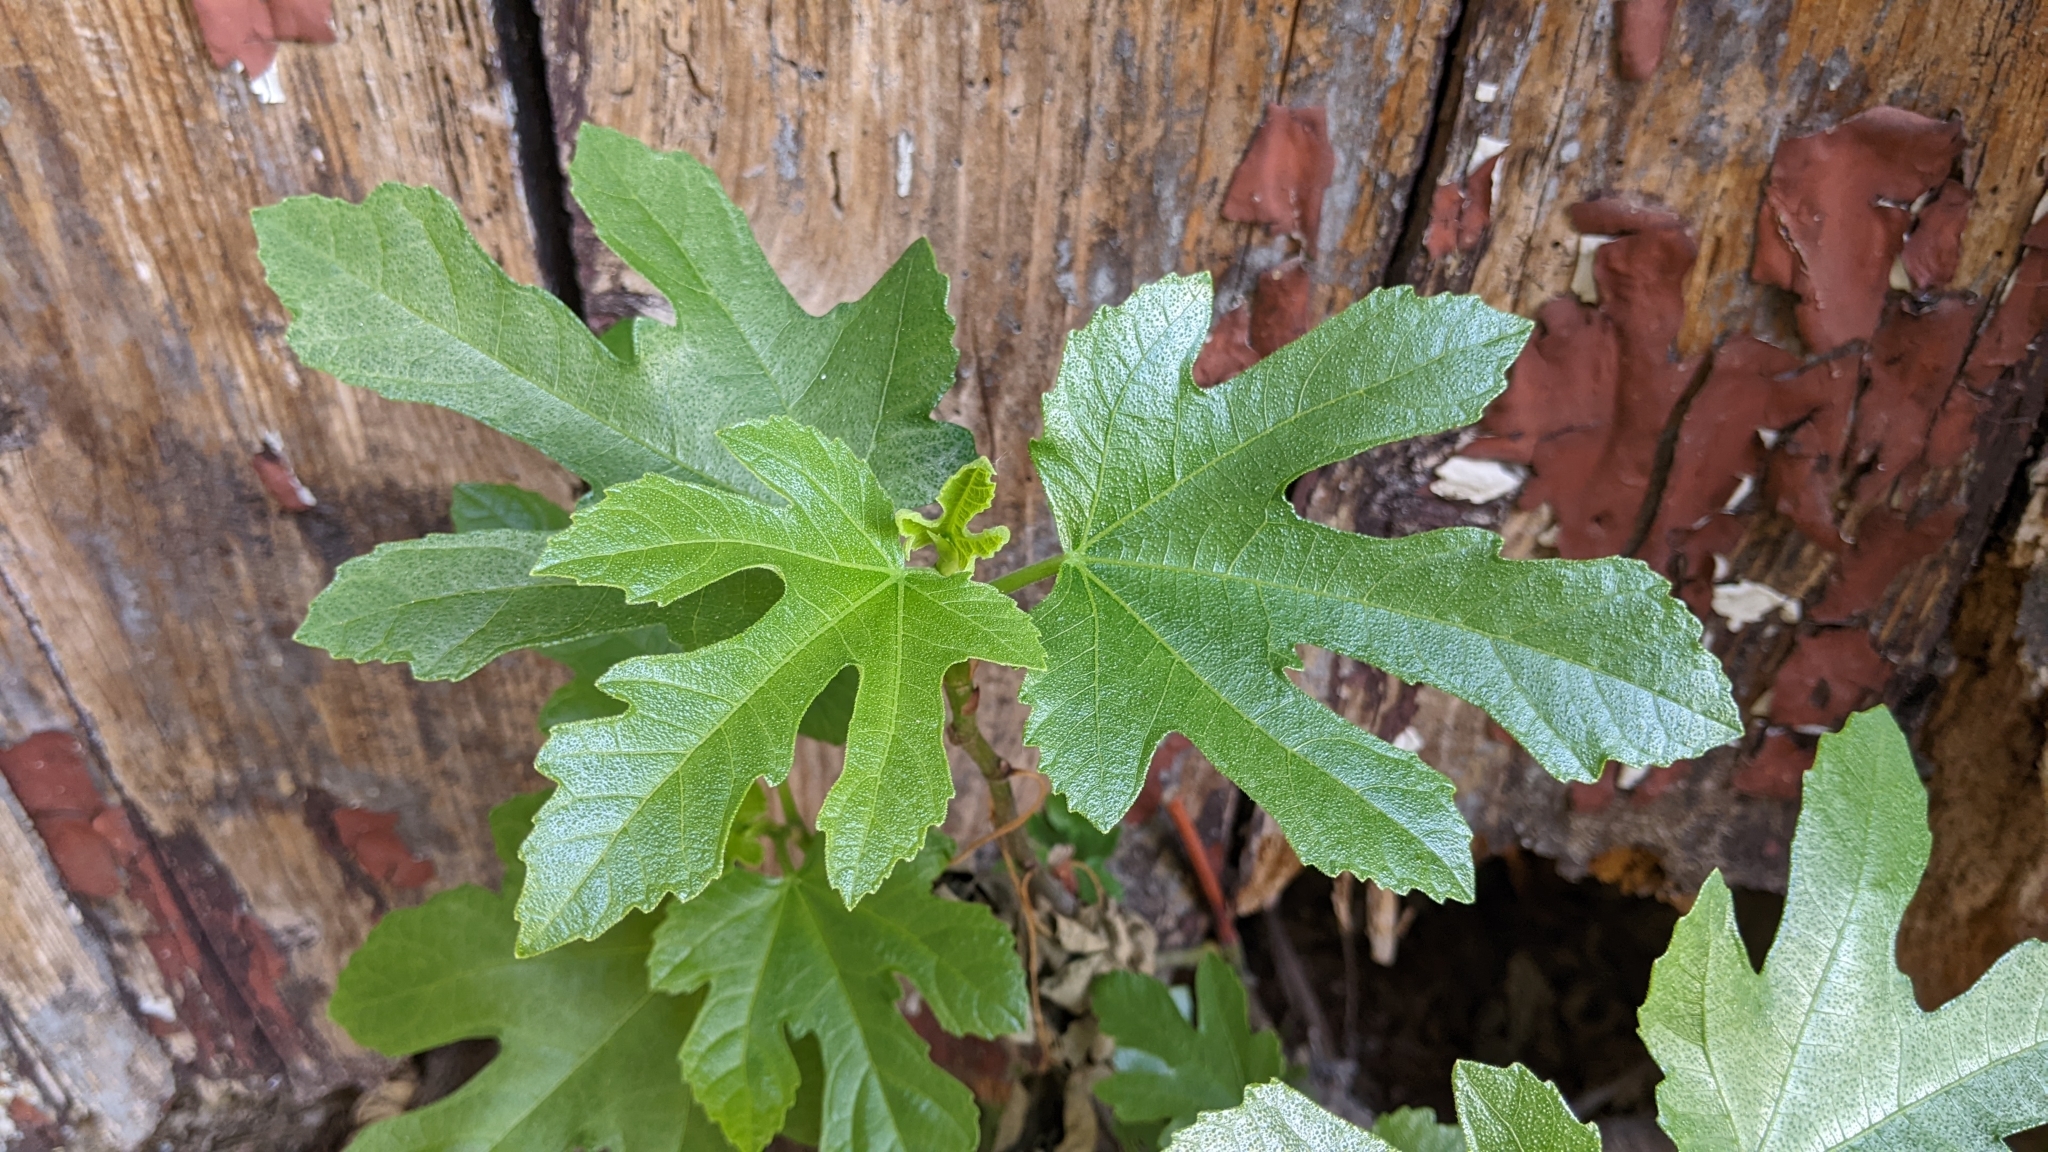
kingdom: Plantae
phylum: Tracheophyta
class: Magnoliopsida
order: Rosales
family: Moraceae
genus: Ficus
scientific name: Ficus carica
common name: Fig
